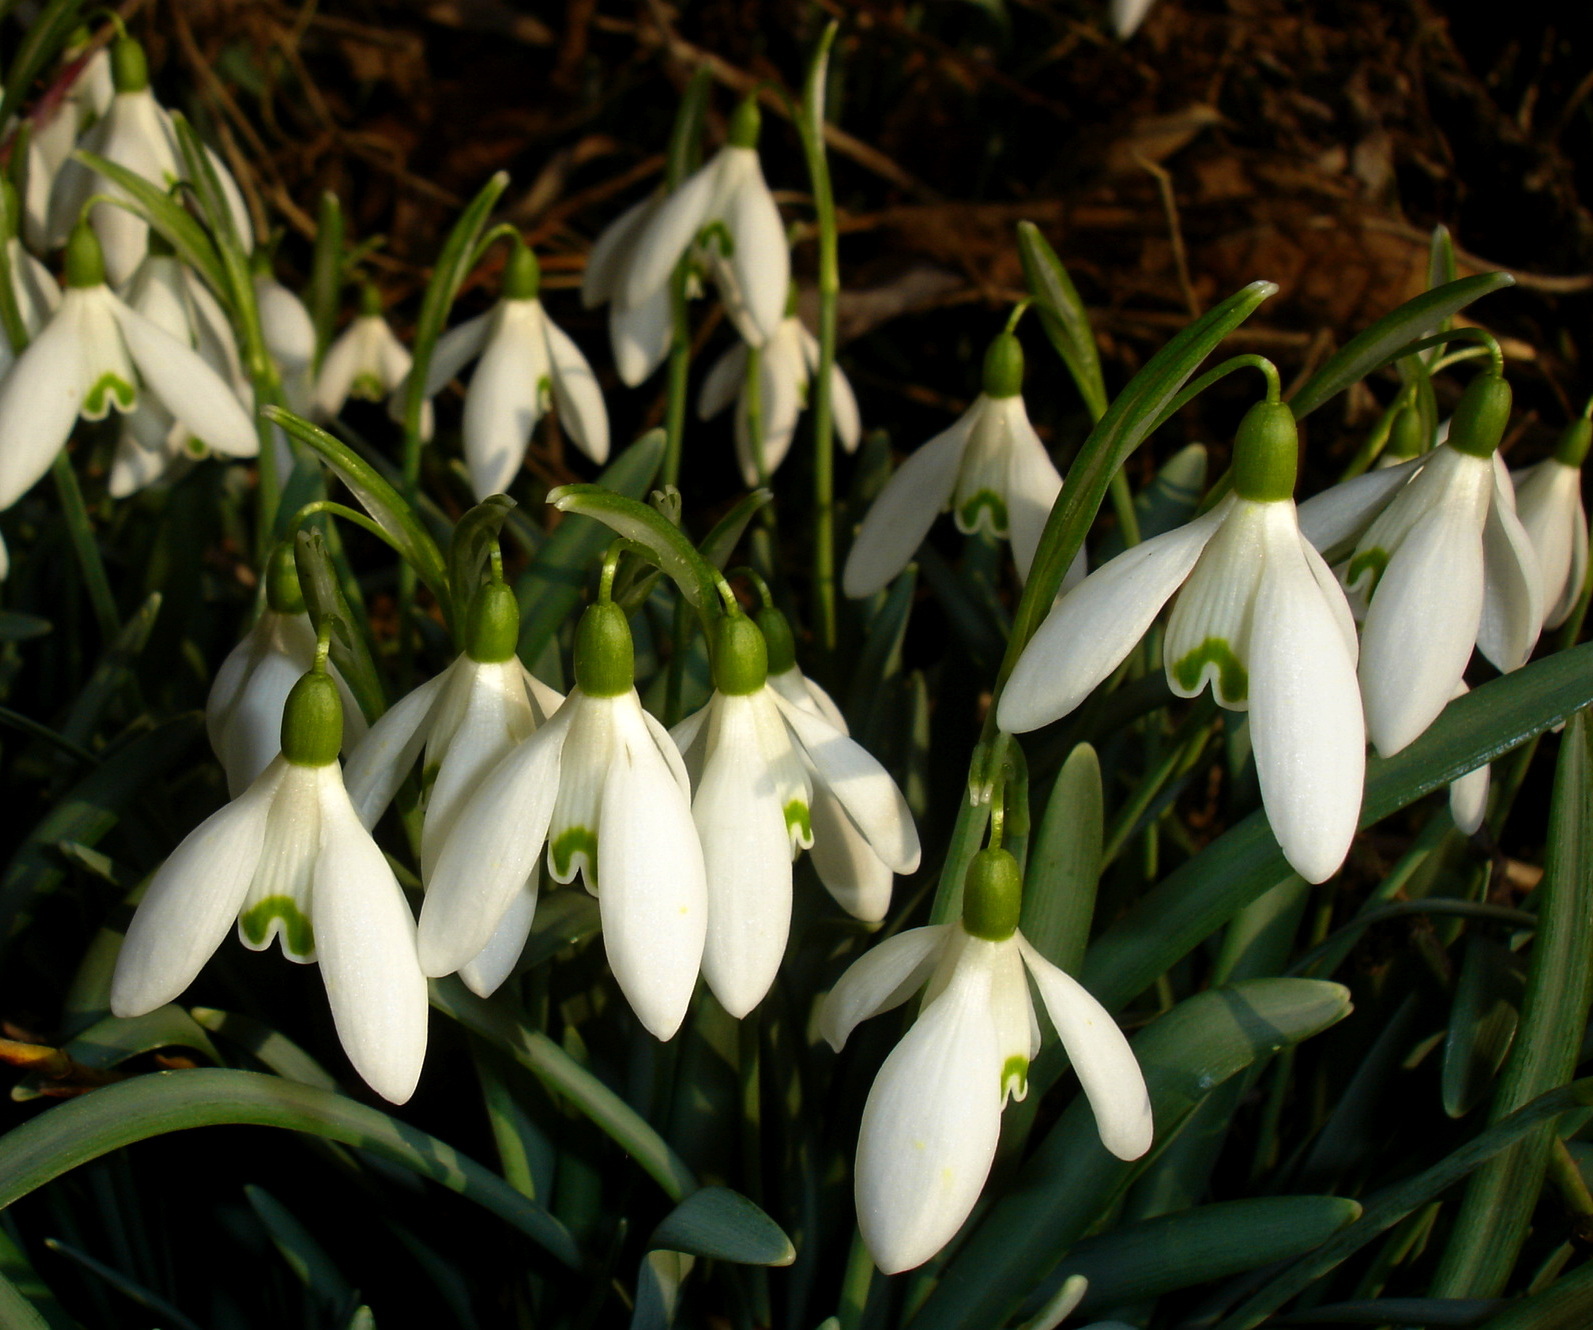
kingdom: Plantae
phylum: Tracheophyta
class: Liliopsida
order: Asparagales
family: Amaryllidaceae
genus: Galanthus
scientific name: Galanthus nivalis
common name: Snowdrop
